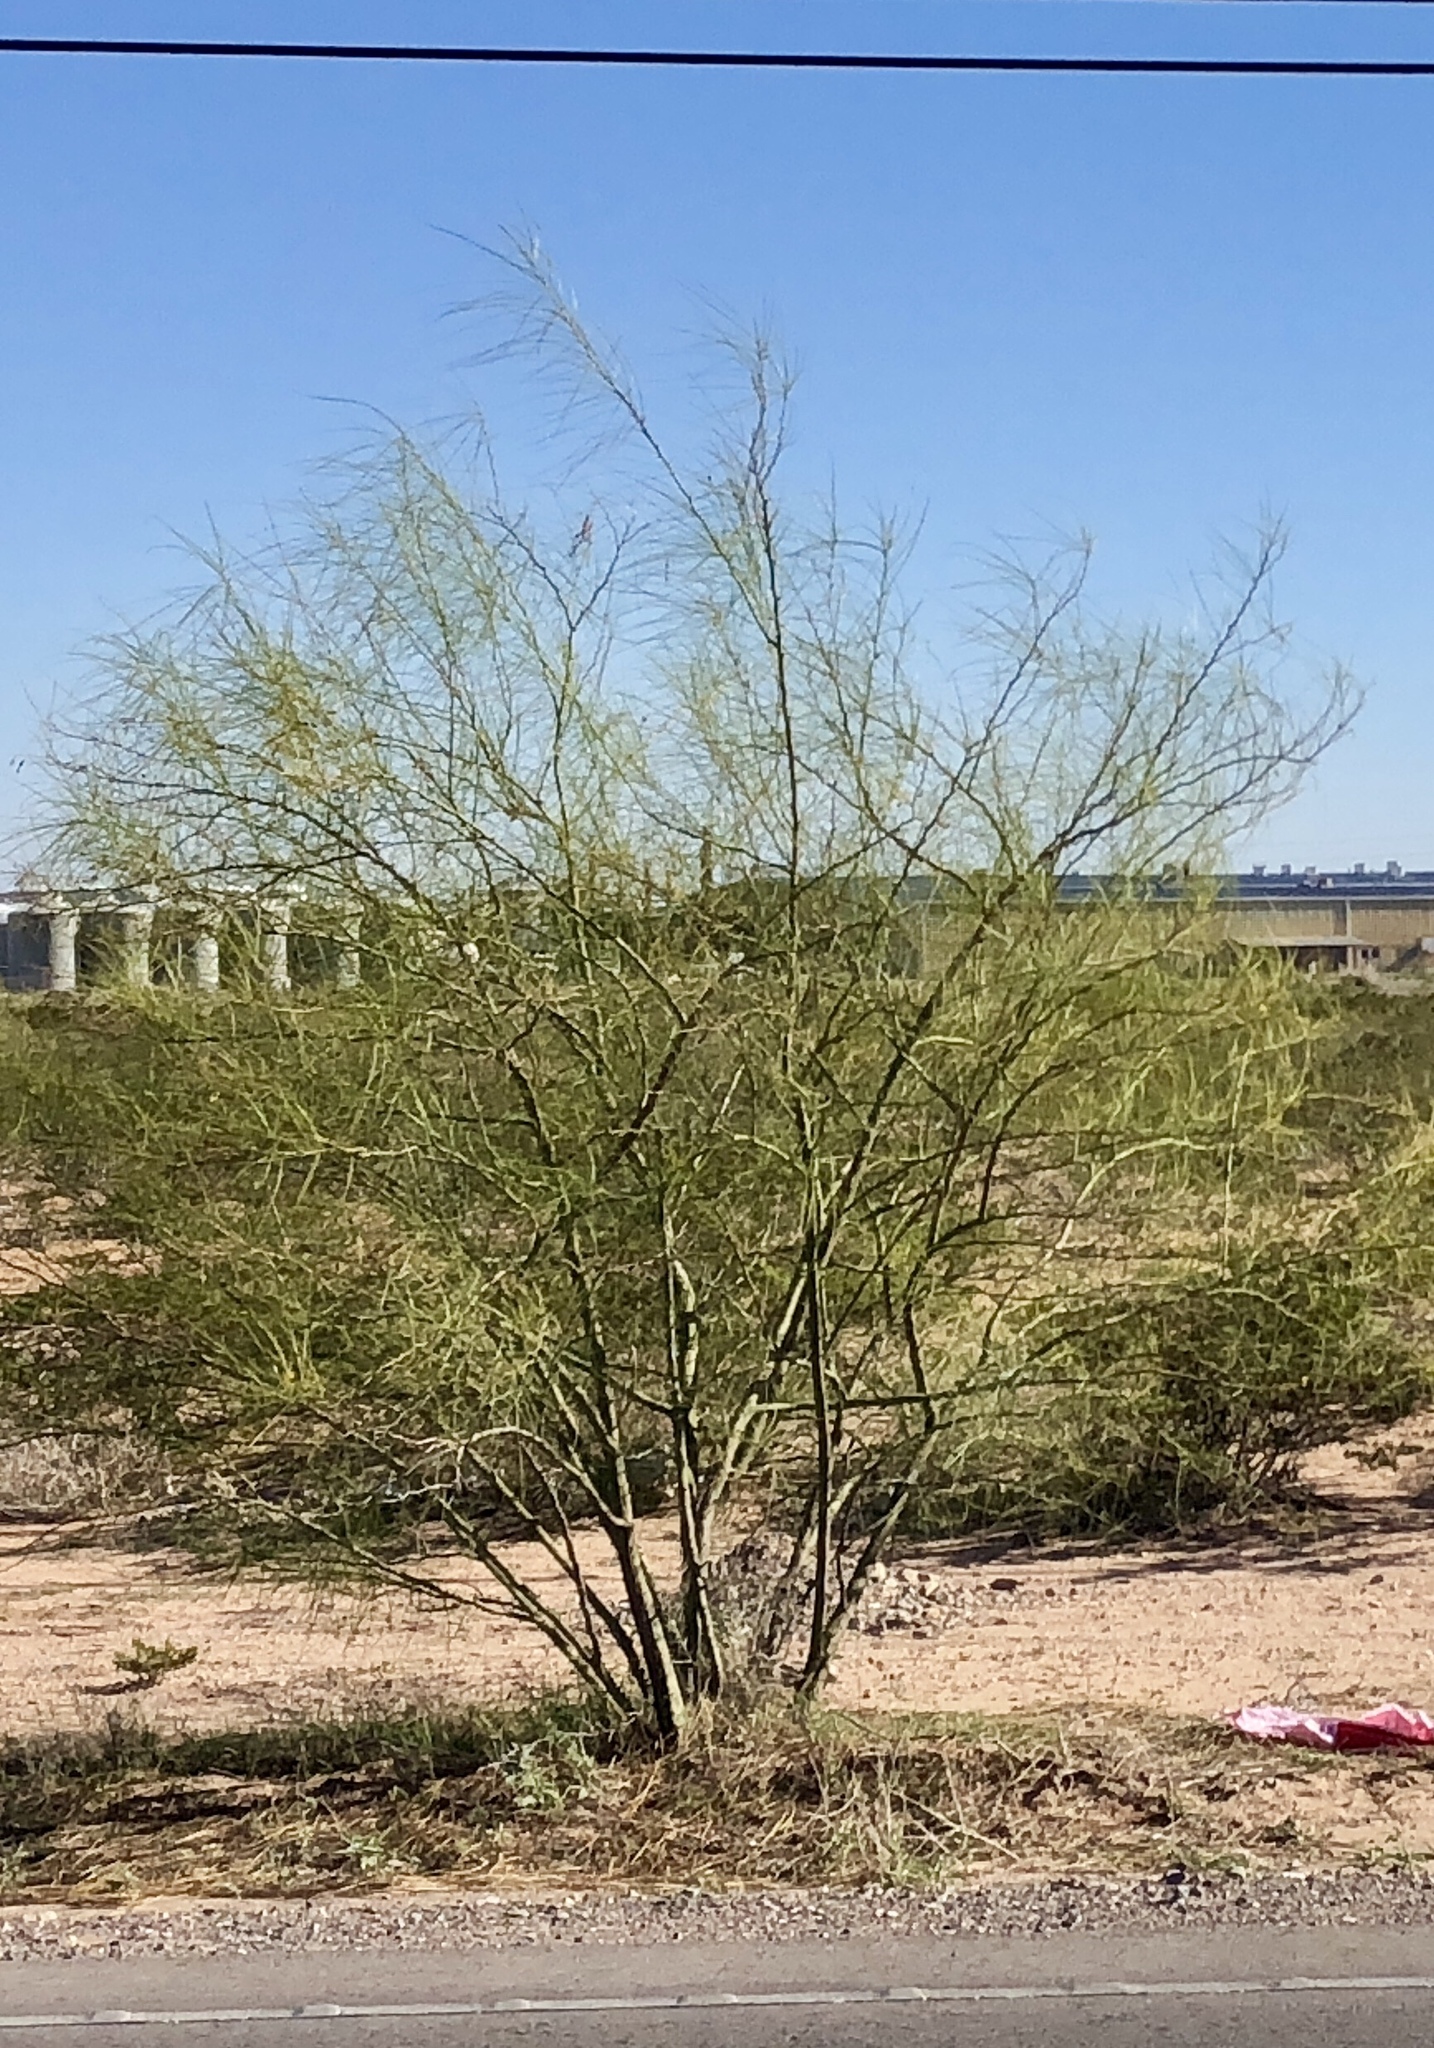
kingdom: Plantae
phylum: Tracheophyta
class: Magnoliopsida
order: Fabales
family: Fabaceae
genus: Parkinsonia
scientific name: Parkinsonia aculeata
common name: Jerusalem thorn
